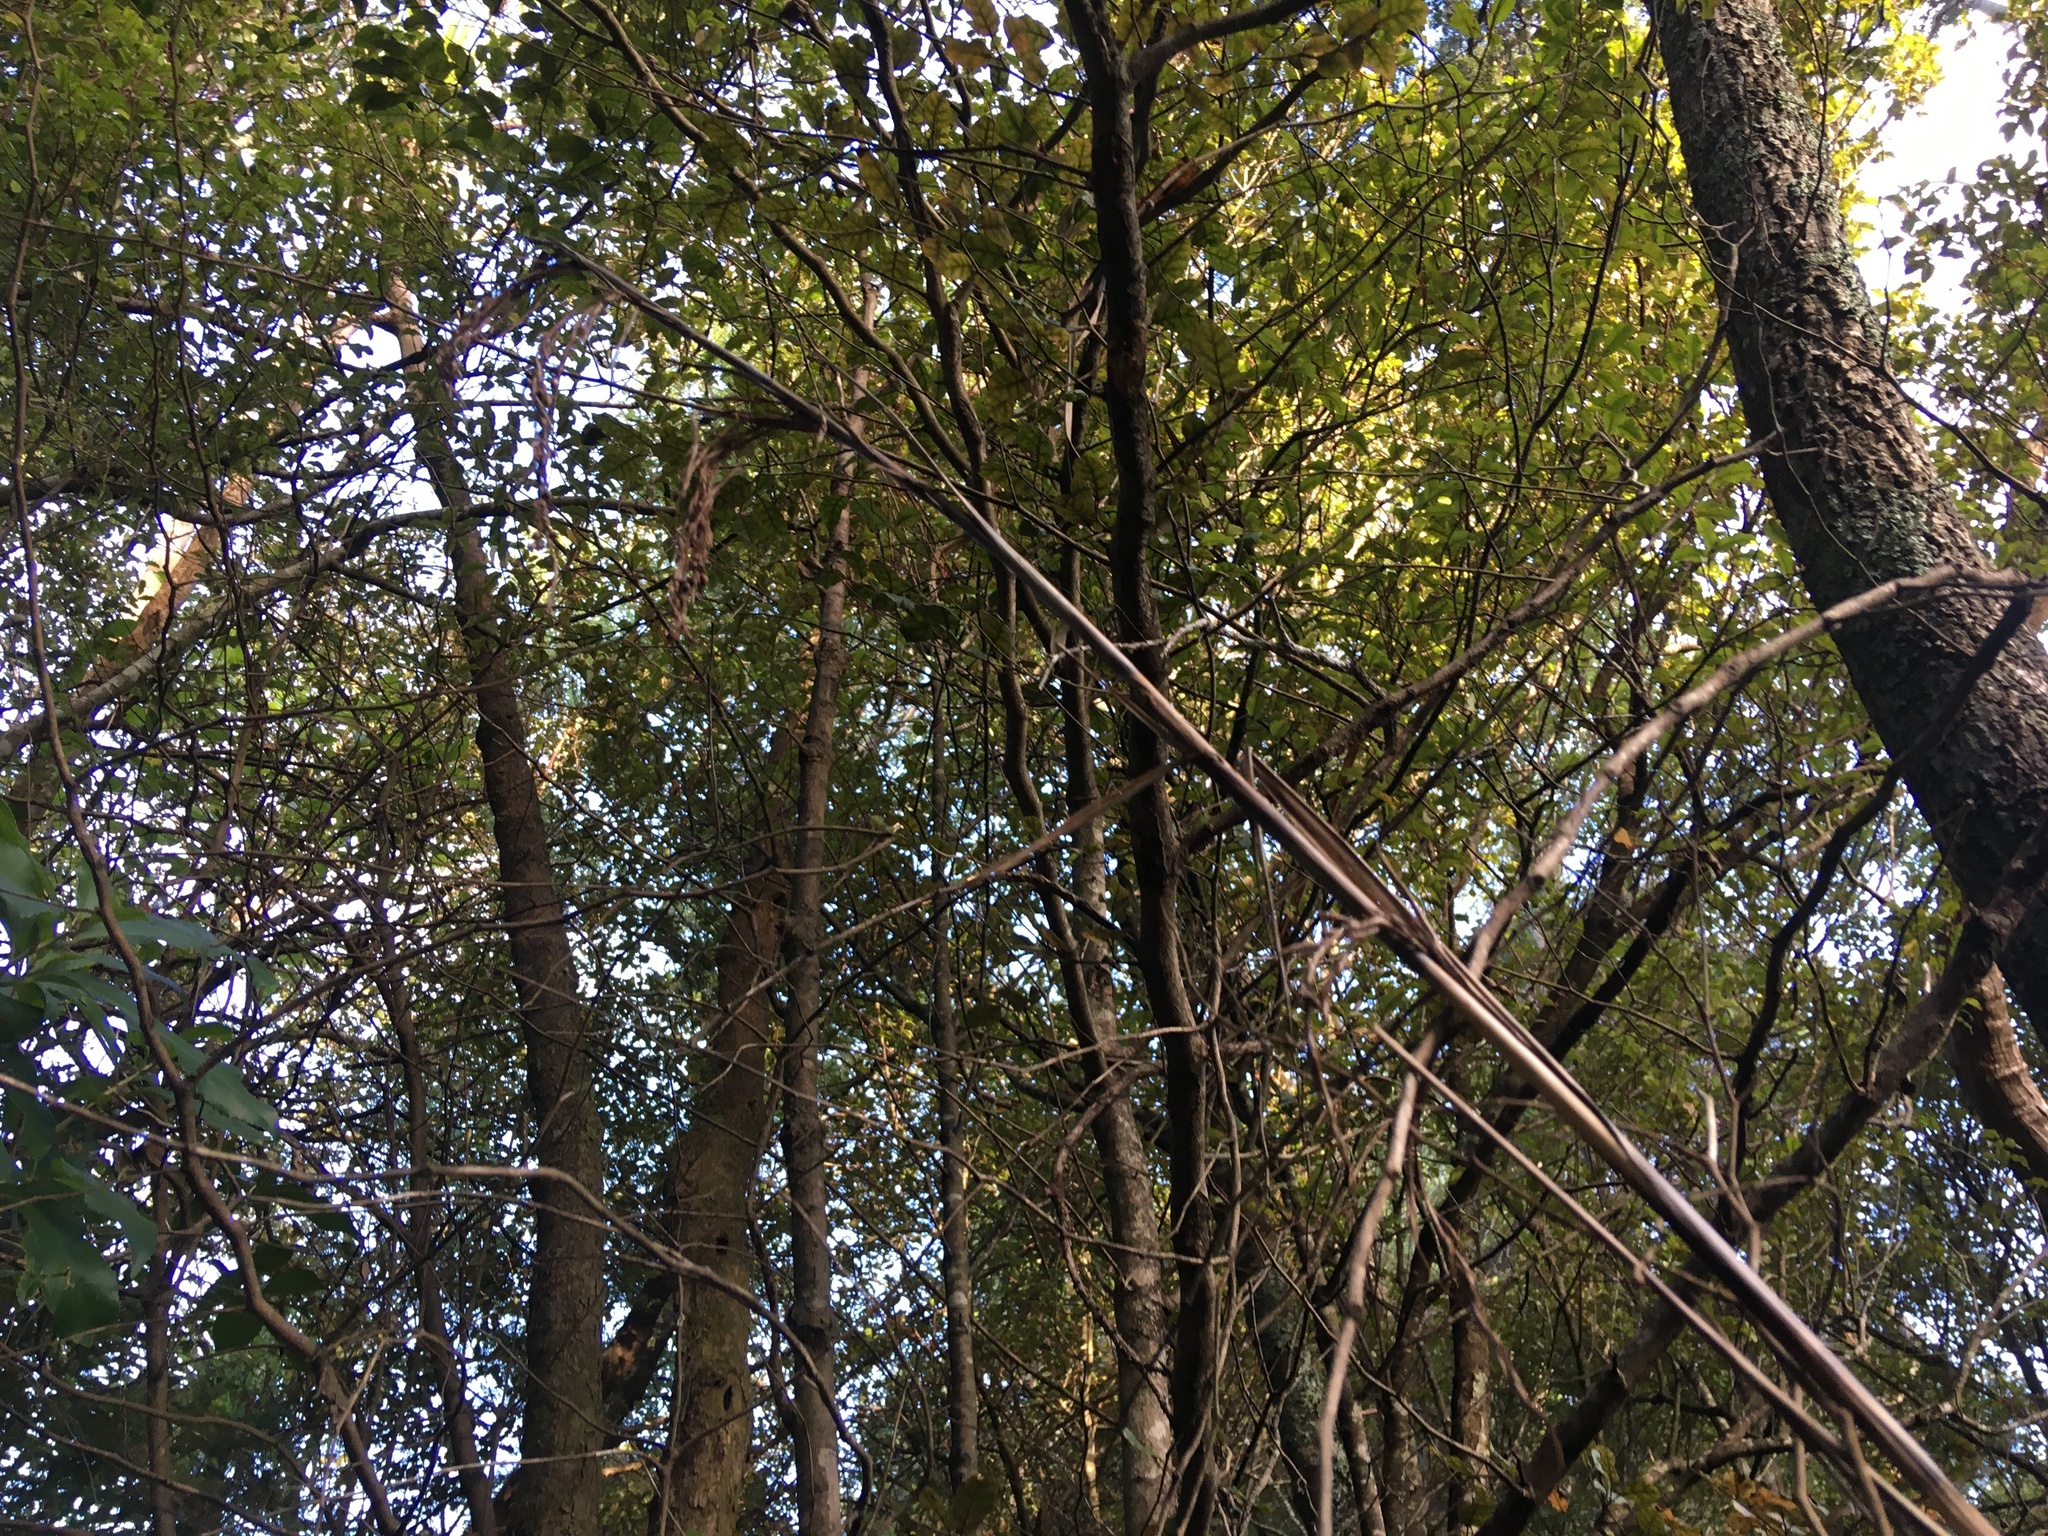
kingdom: Plantae
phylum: Tracheophyta
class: Magnoliopsida
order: Asterales
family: Rousseaceae
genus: Carpodetus
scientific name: Carpodetus serratus
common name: White mapau
